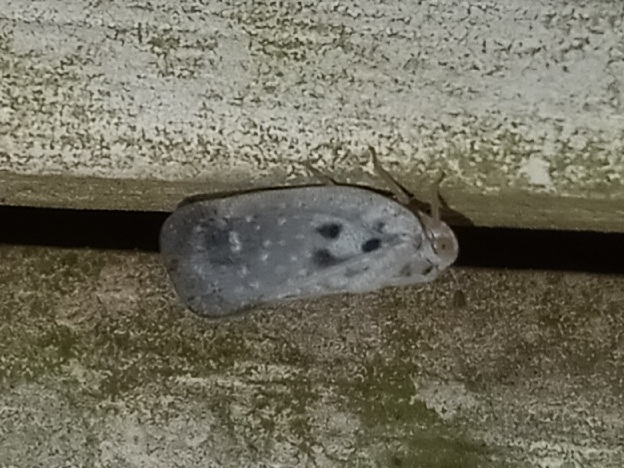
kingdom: Animalia
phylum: Arthropoda
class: Insecta
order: Hemiptera
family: Flatidae
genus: Metcalfa
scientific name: Metcalfa pruinosa
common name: Citrus flatid planthopper
